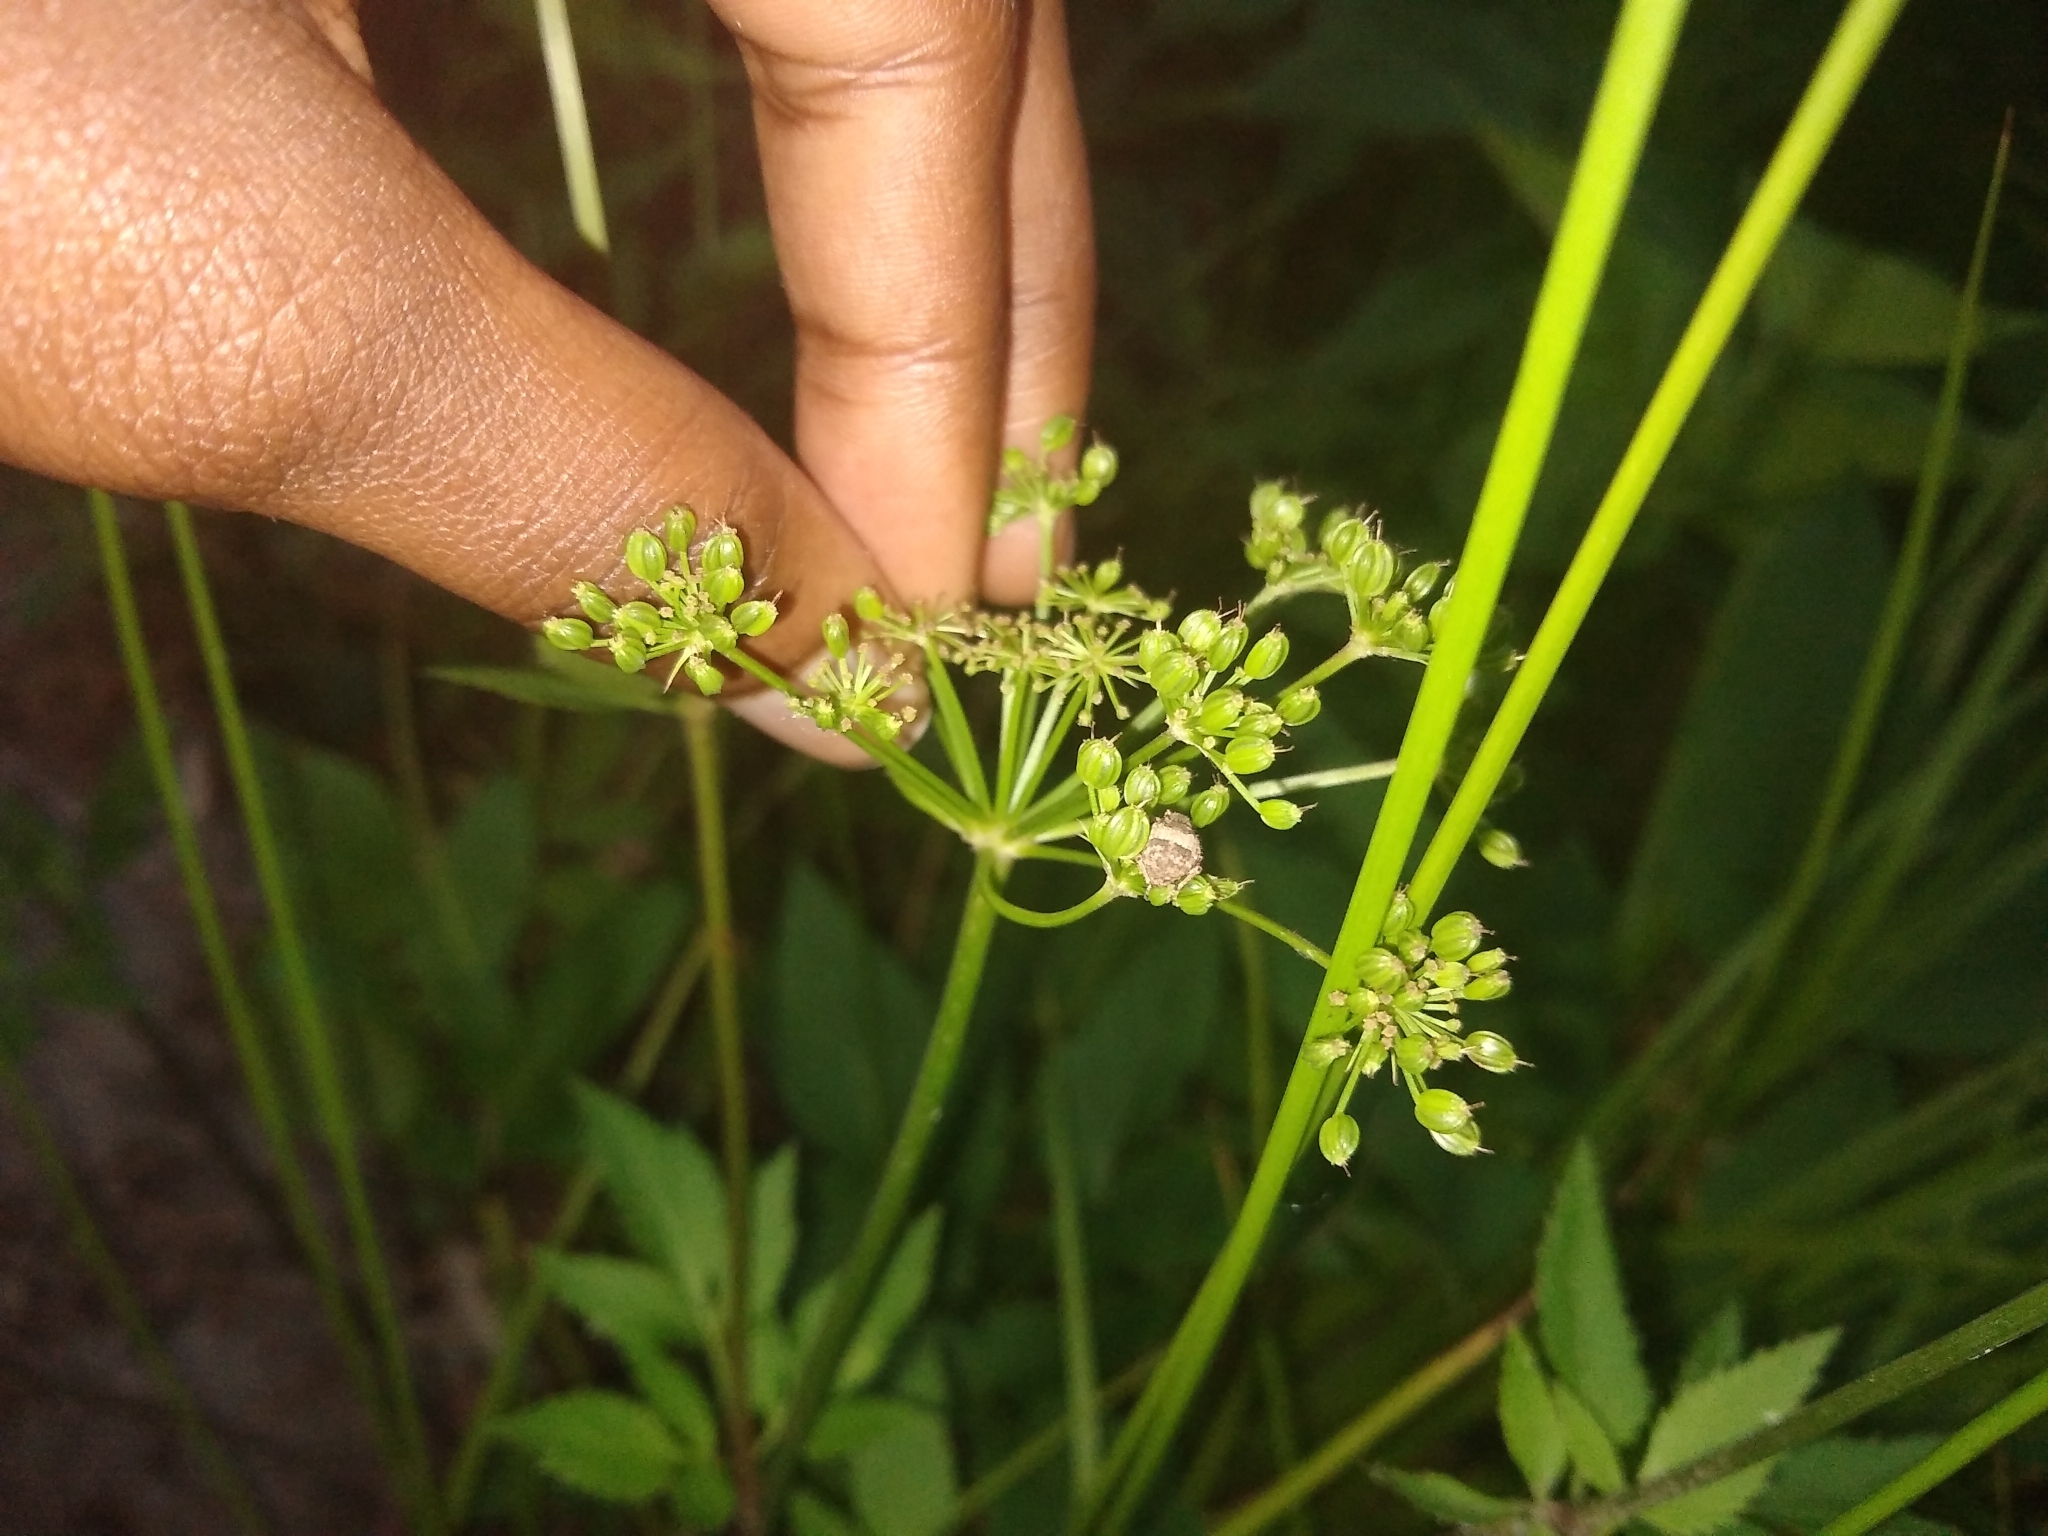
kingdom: Animalia
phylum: Arthropoda
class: Insecta
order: Coleoptera
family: Curculionidae
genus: Pseudocneorhinus
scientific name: Pseudocneorhinus obesus
